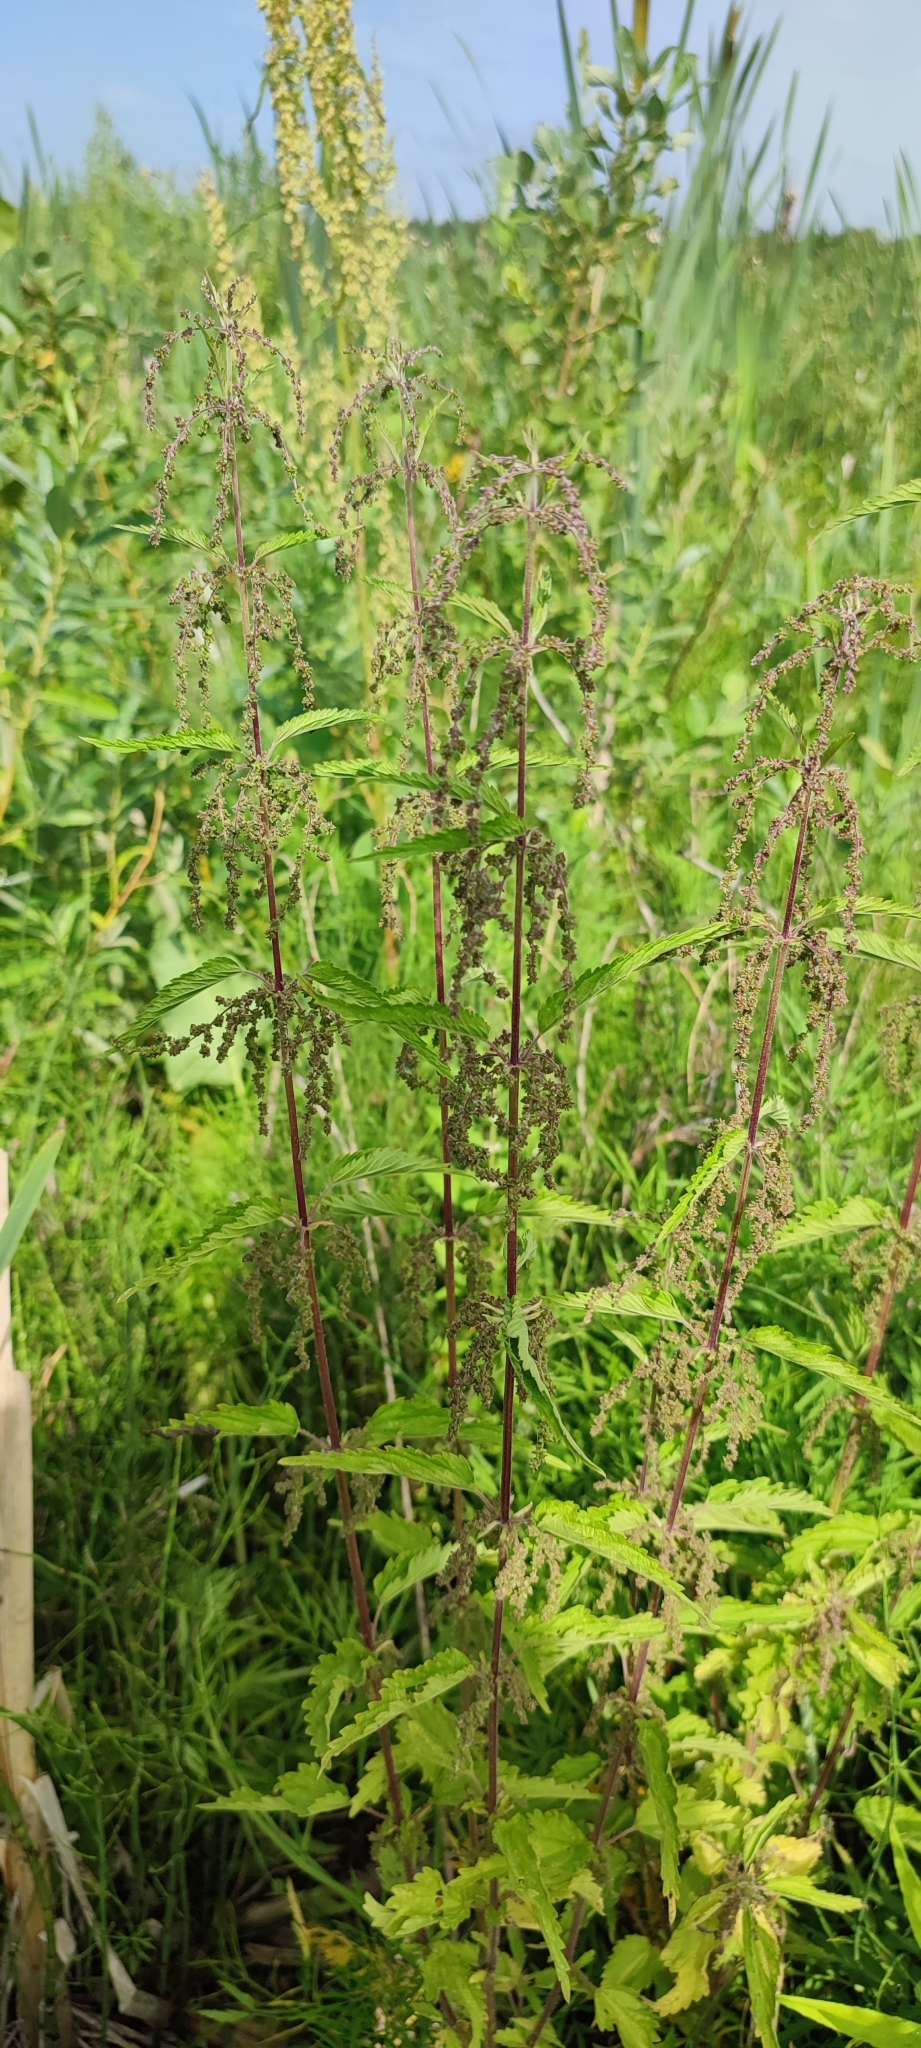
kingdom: Plantae
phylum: Tracheophyta
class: Magnoliopsida
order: Rosales
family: Urticaceae
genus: Urtica
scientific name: Urtica dioica
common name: Common nettle
